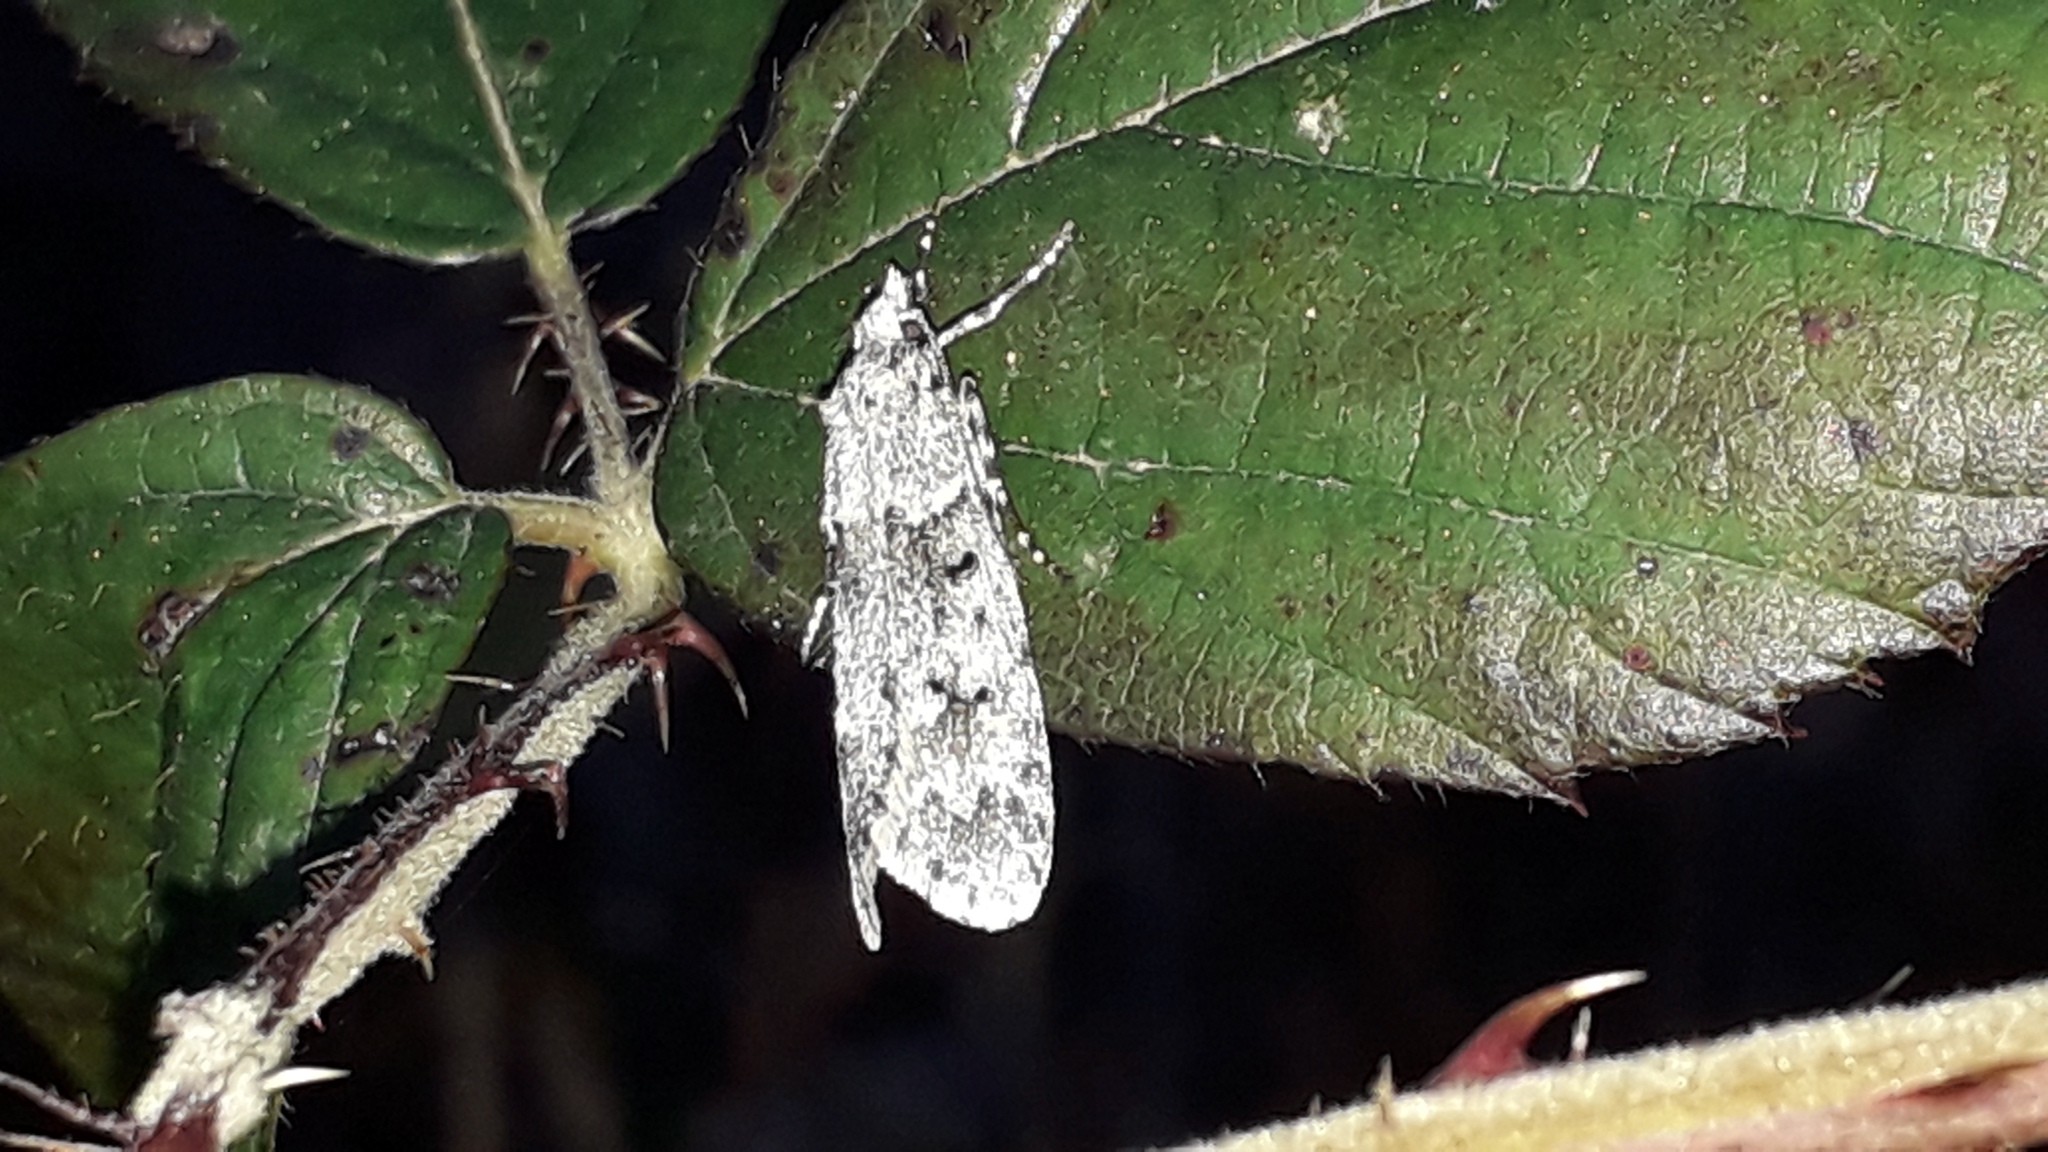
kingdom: Animalia
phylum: Arthropoda
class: Insecta
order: Lepidoptera
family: Lypusidae
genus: Diurnea
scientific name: Diurnea fagella
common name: March tubic
